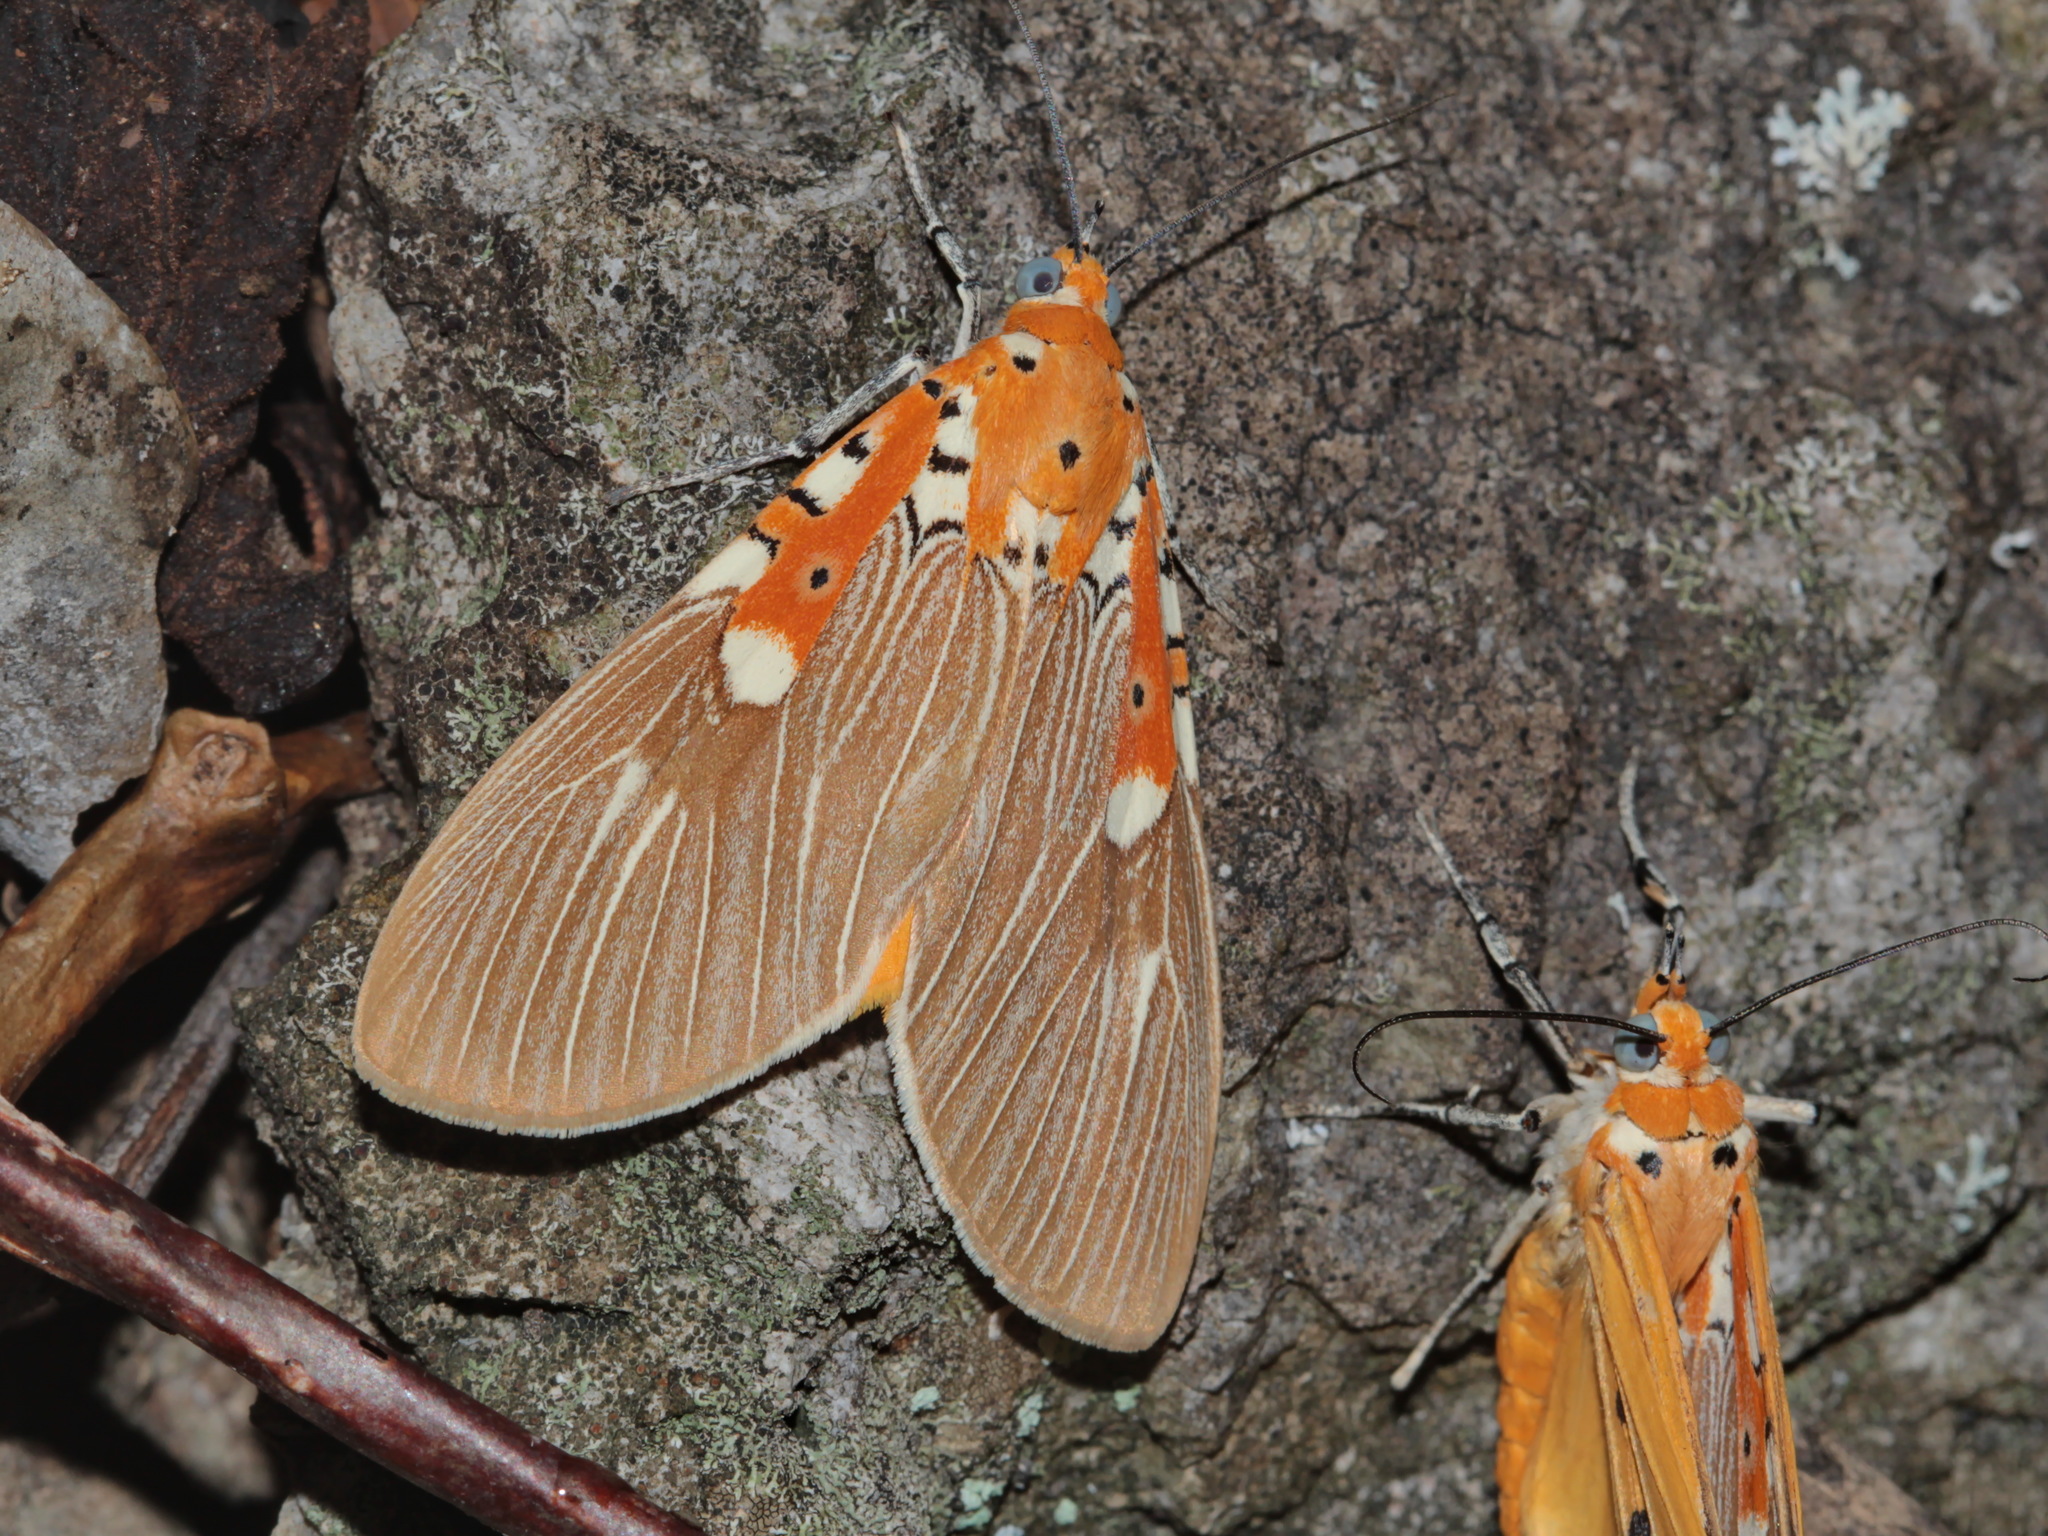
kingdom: Animalia
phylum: Arthropoda
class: Insecta
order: Lepidoptera
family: Erebidae
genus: Asota
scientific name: Asota ficus
